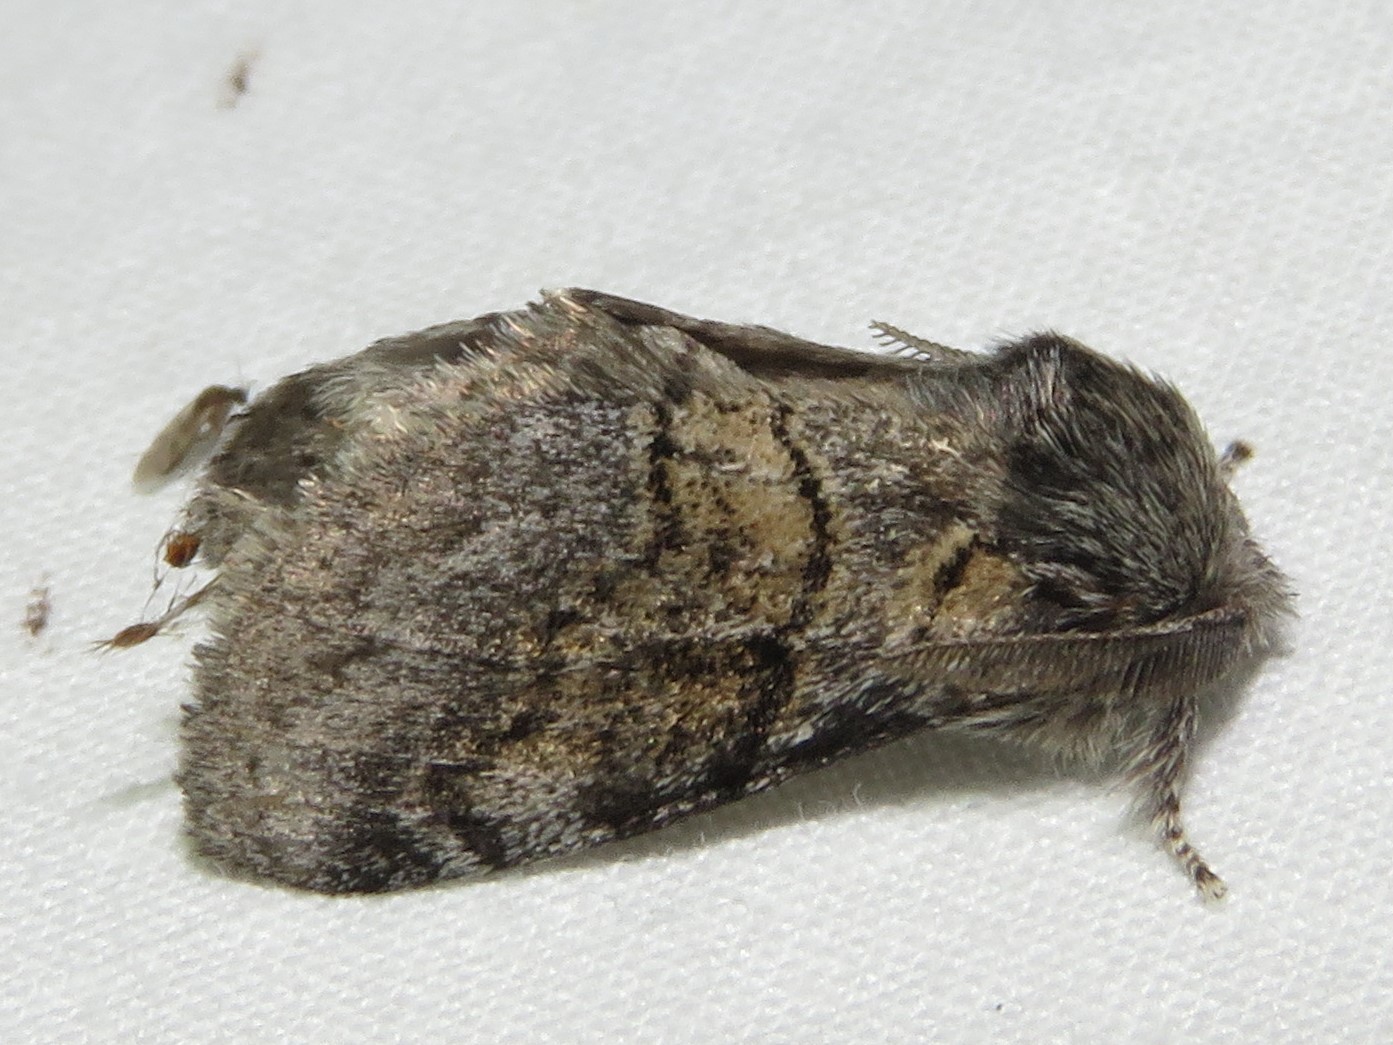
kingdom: Animalia
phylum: Arthropoda
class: Insecta
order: Lepidoptera
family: Notodontidae
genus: Gluphisia
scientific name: Gluphisia septentrionis
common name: Common gluphisia
